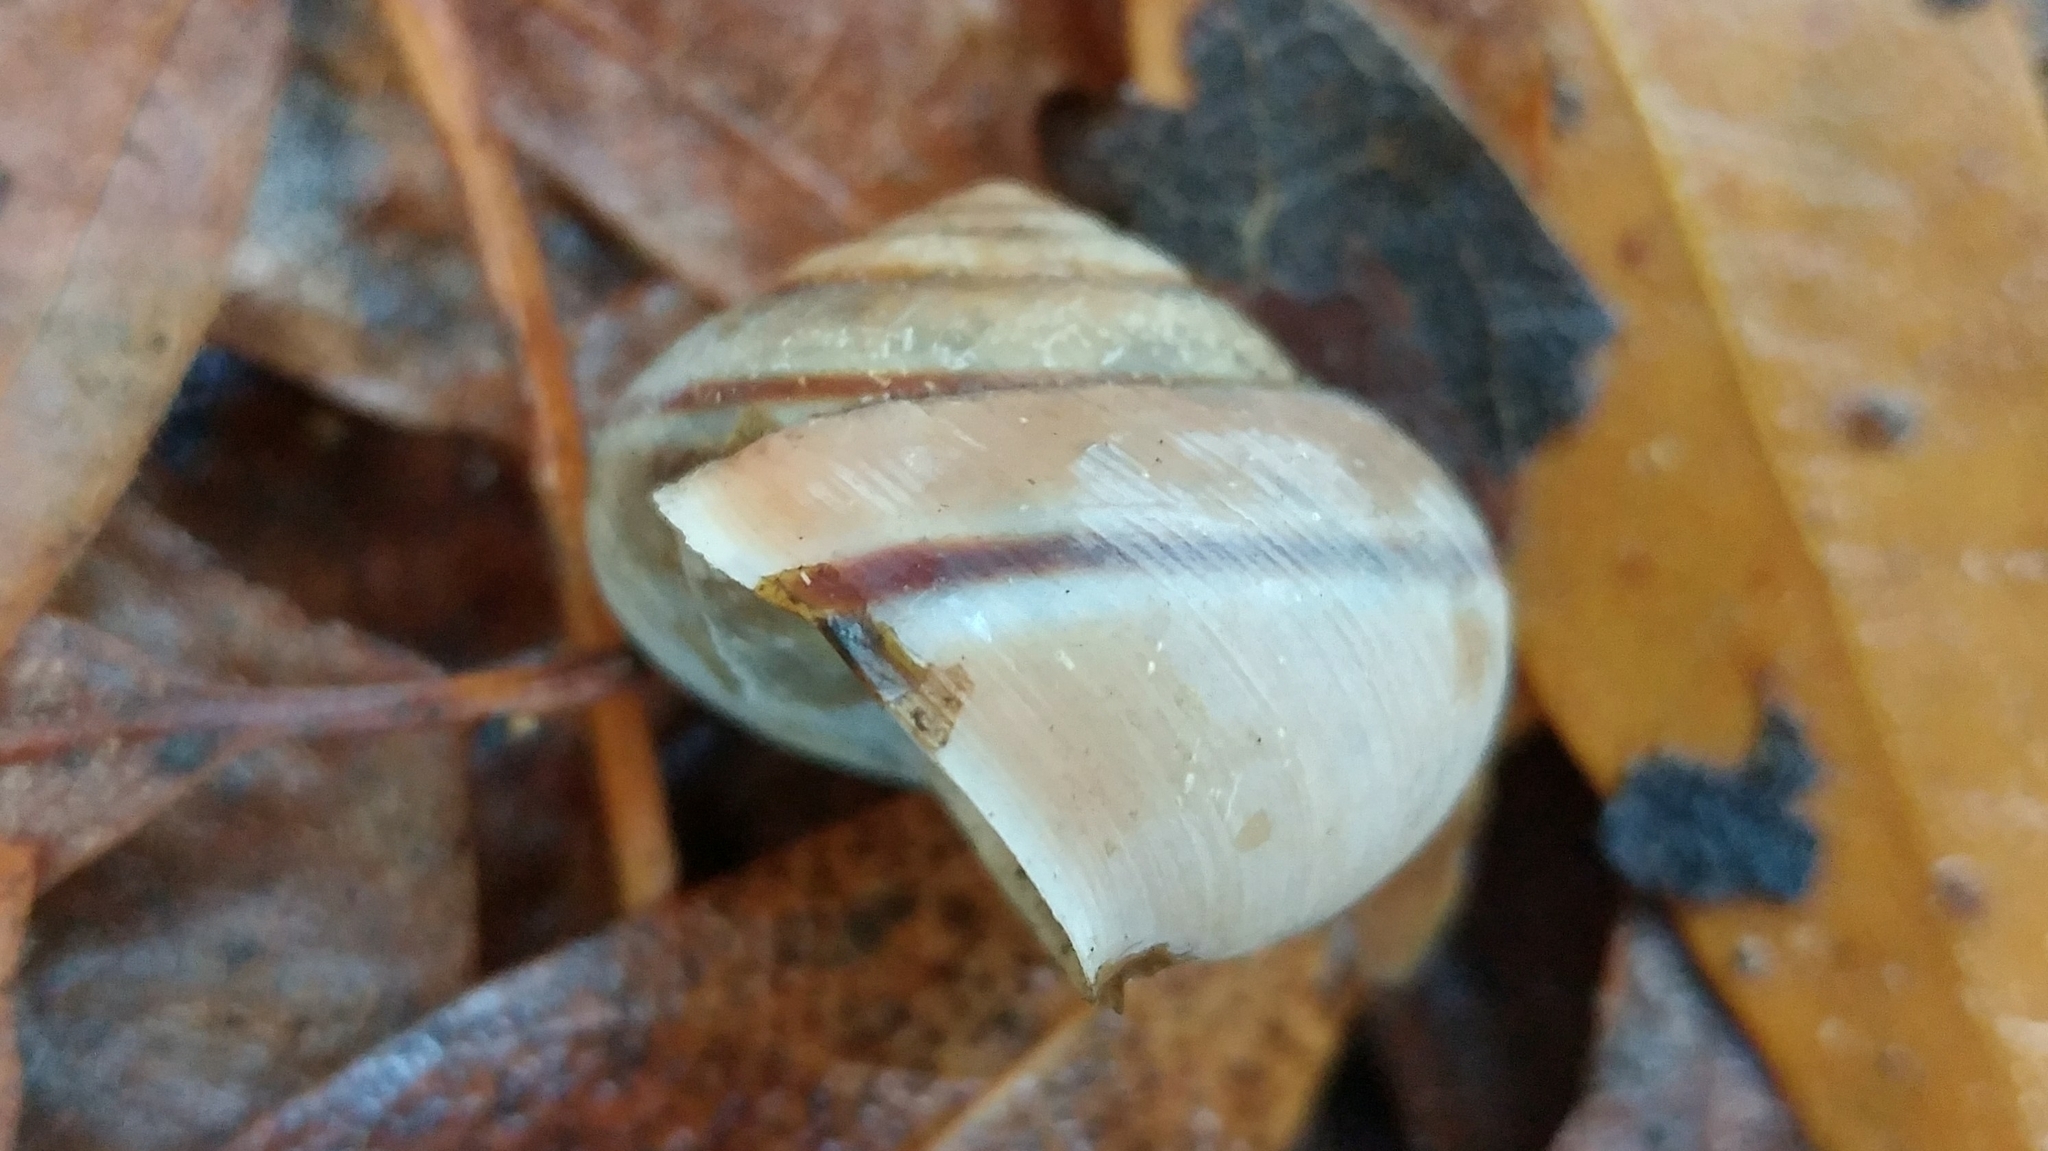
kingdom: Animalia
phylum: Mollusca
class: Gastropoda
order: Stylommatophora
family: Xanthonychidae
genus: Helminthoglypta
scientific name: Helminthoglypta phlyctaena
